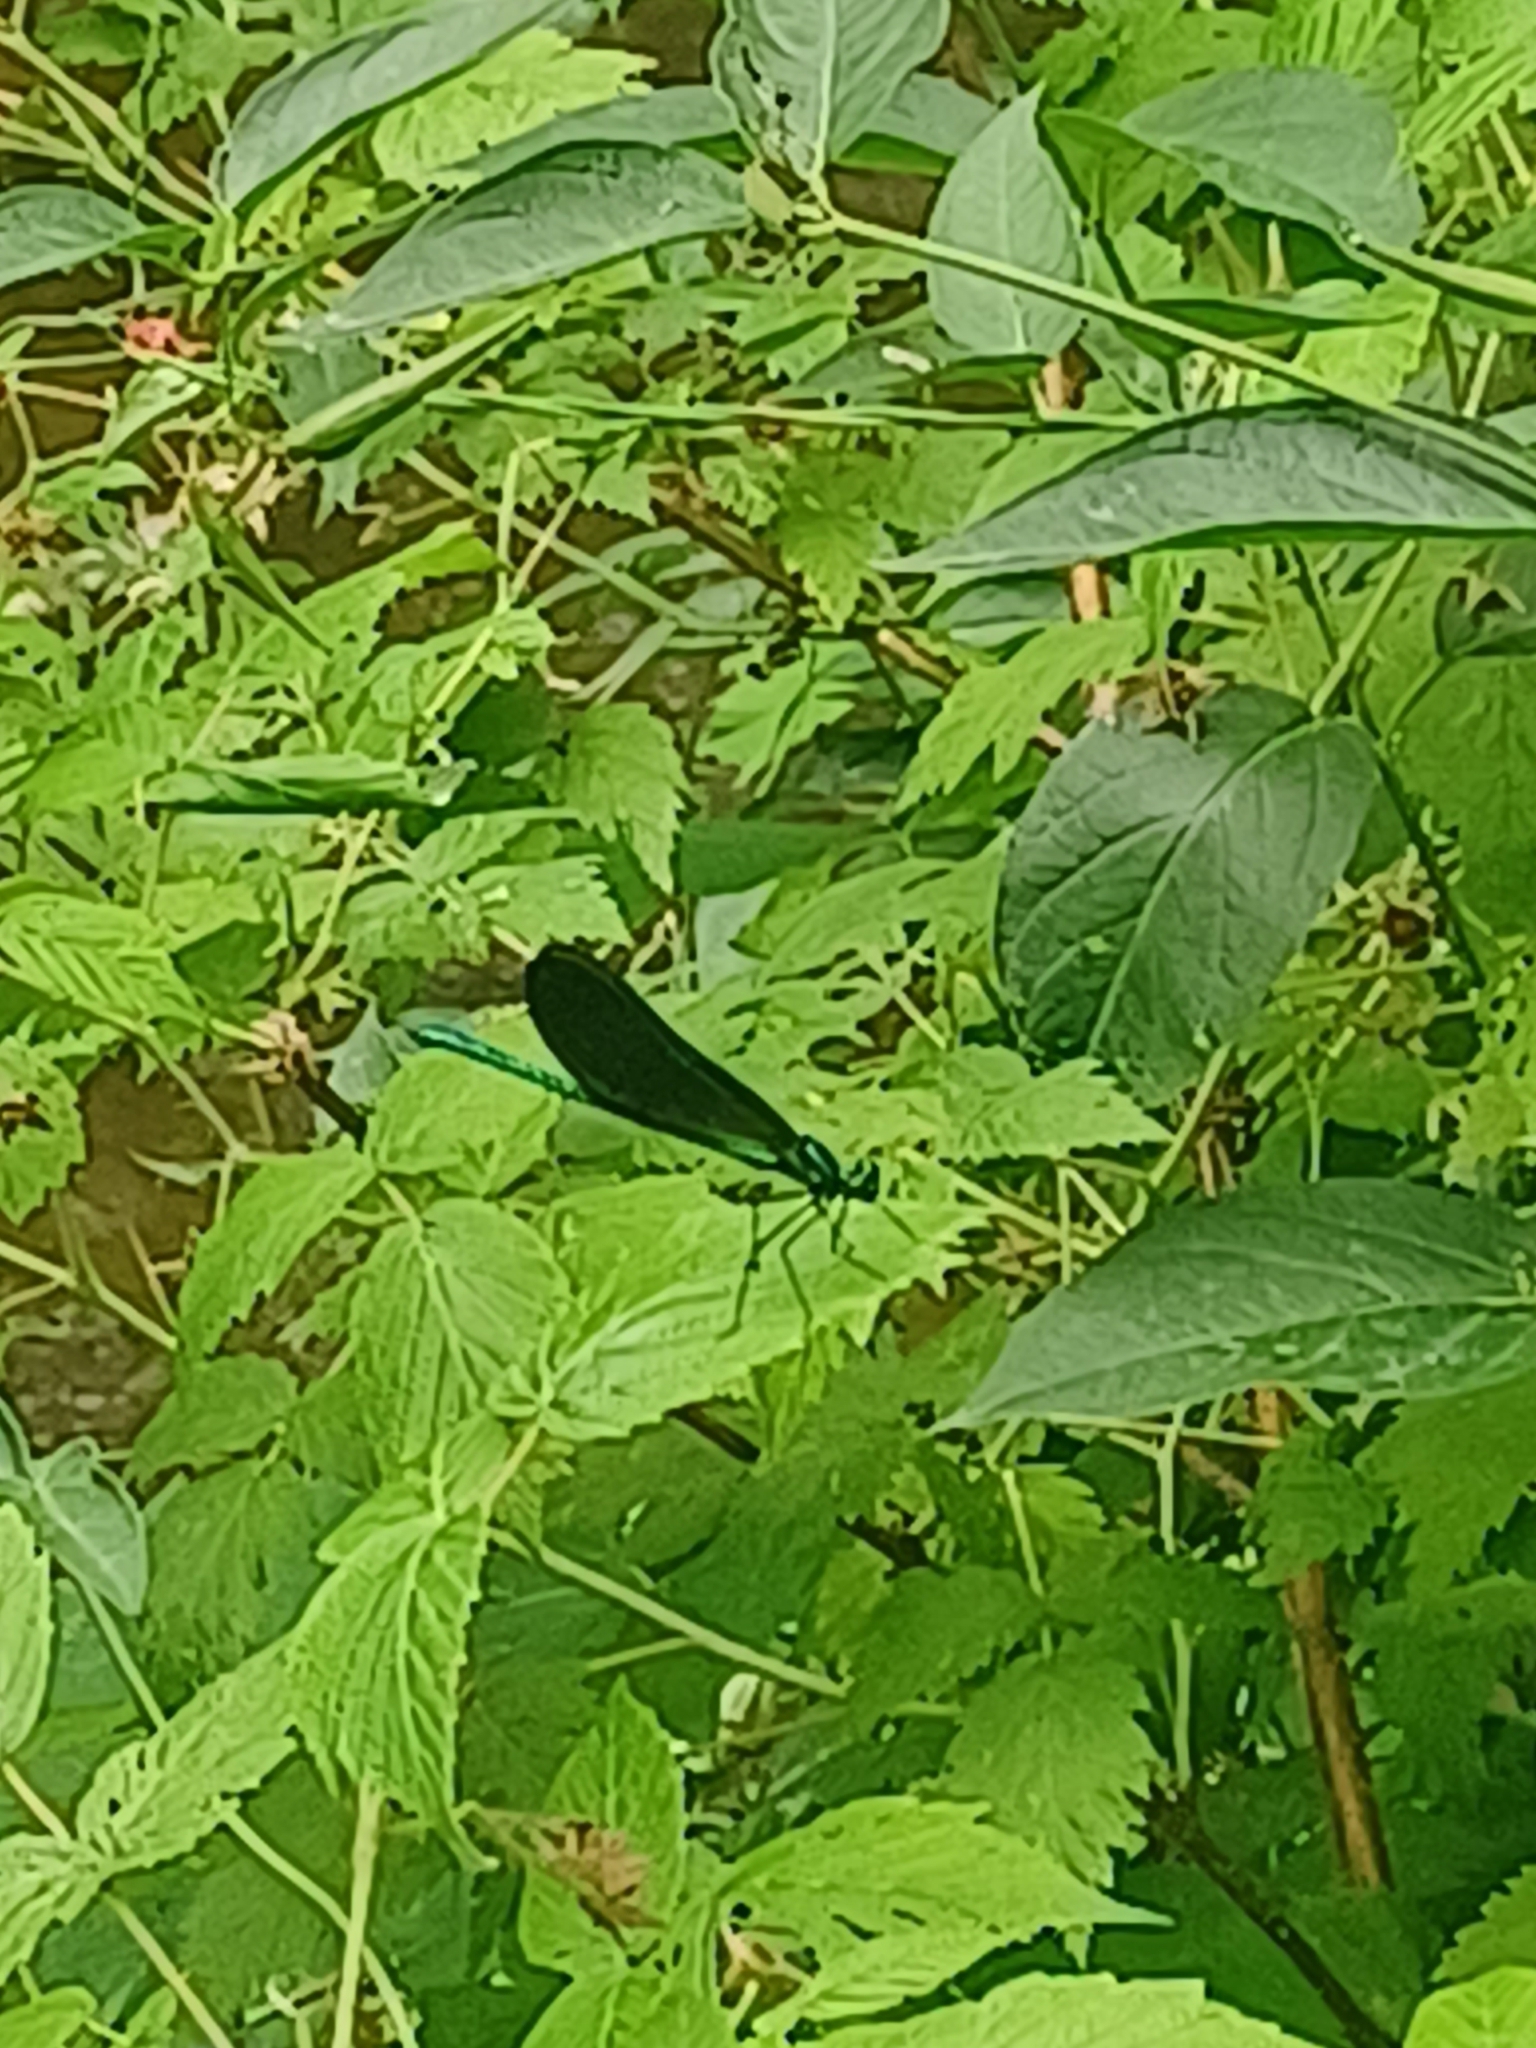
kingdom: Animalia
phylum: Arthropoda
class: Insecta
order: Odonata
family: Calopterygidae
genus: Calopteryx
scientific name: Calopteryx maculata
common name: Ebony jewelwing
